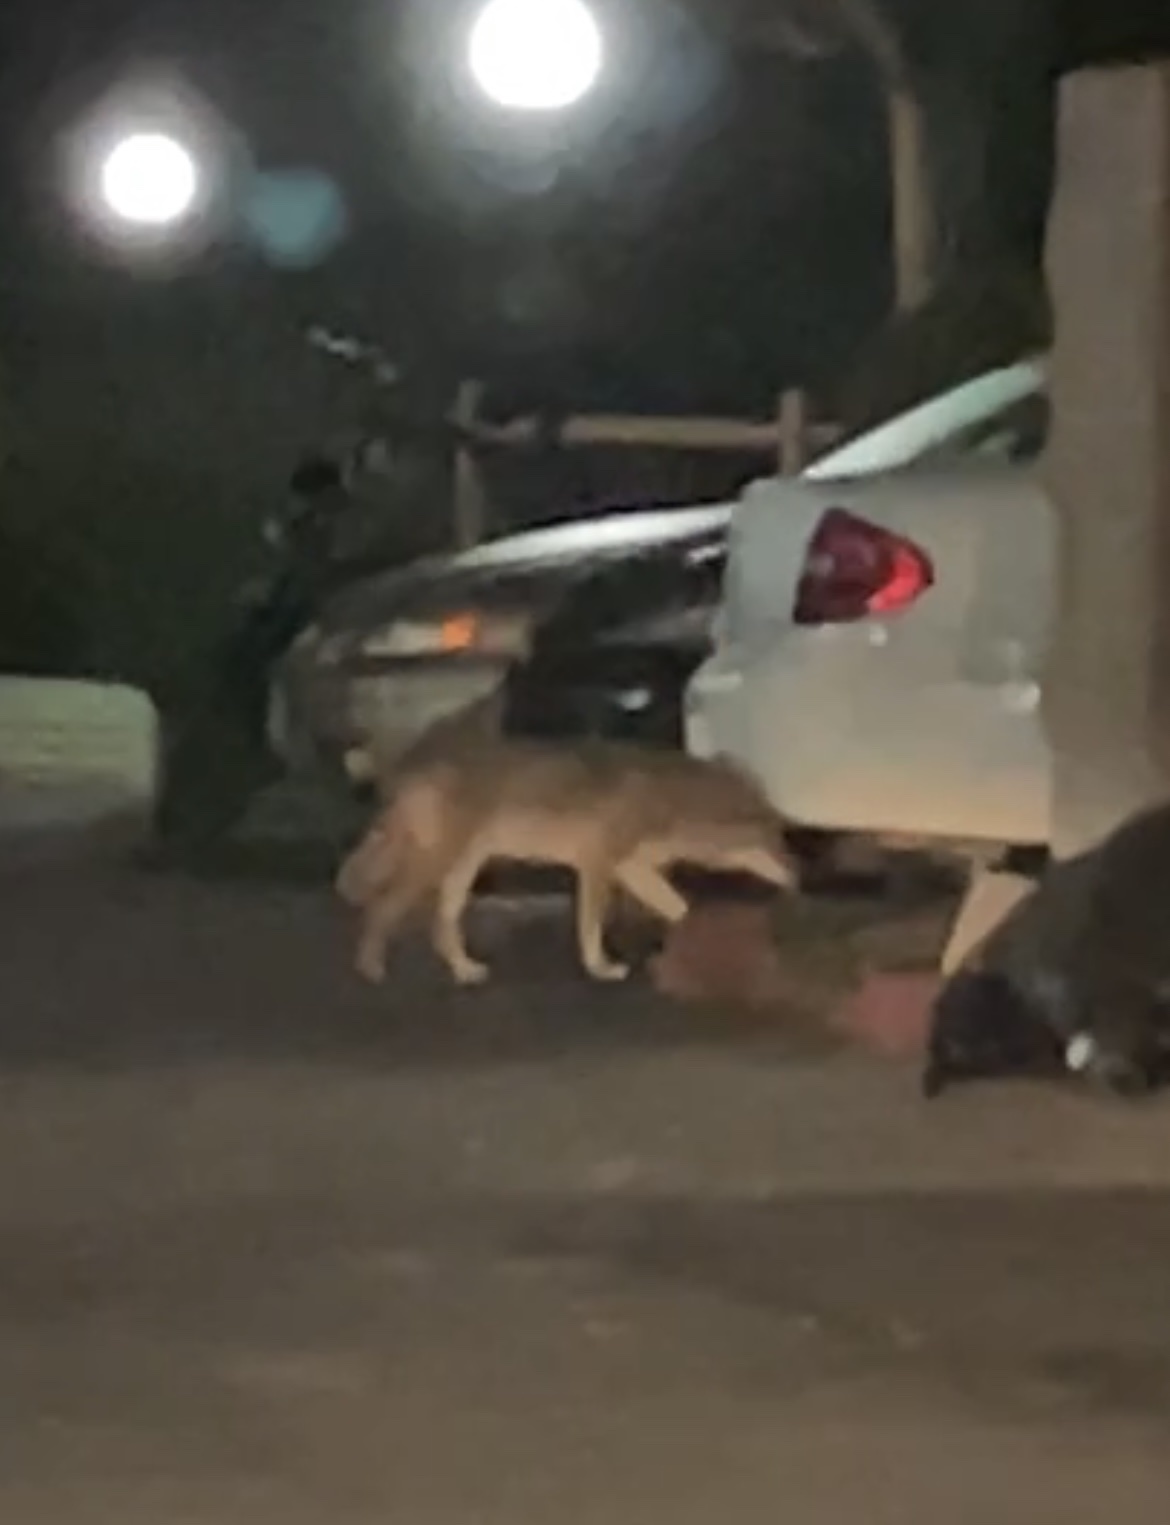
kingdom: Animalia
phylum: Chordata
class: Mammalia
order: Carnivora
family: Canidae
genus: Canis
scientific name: Canis latrans
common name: Coyote
